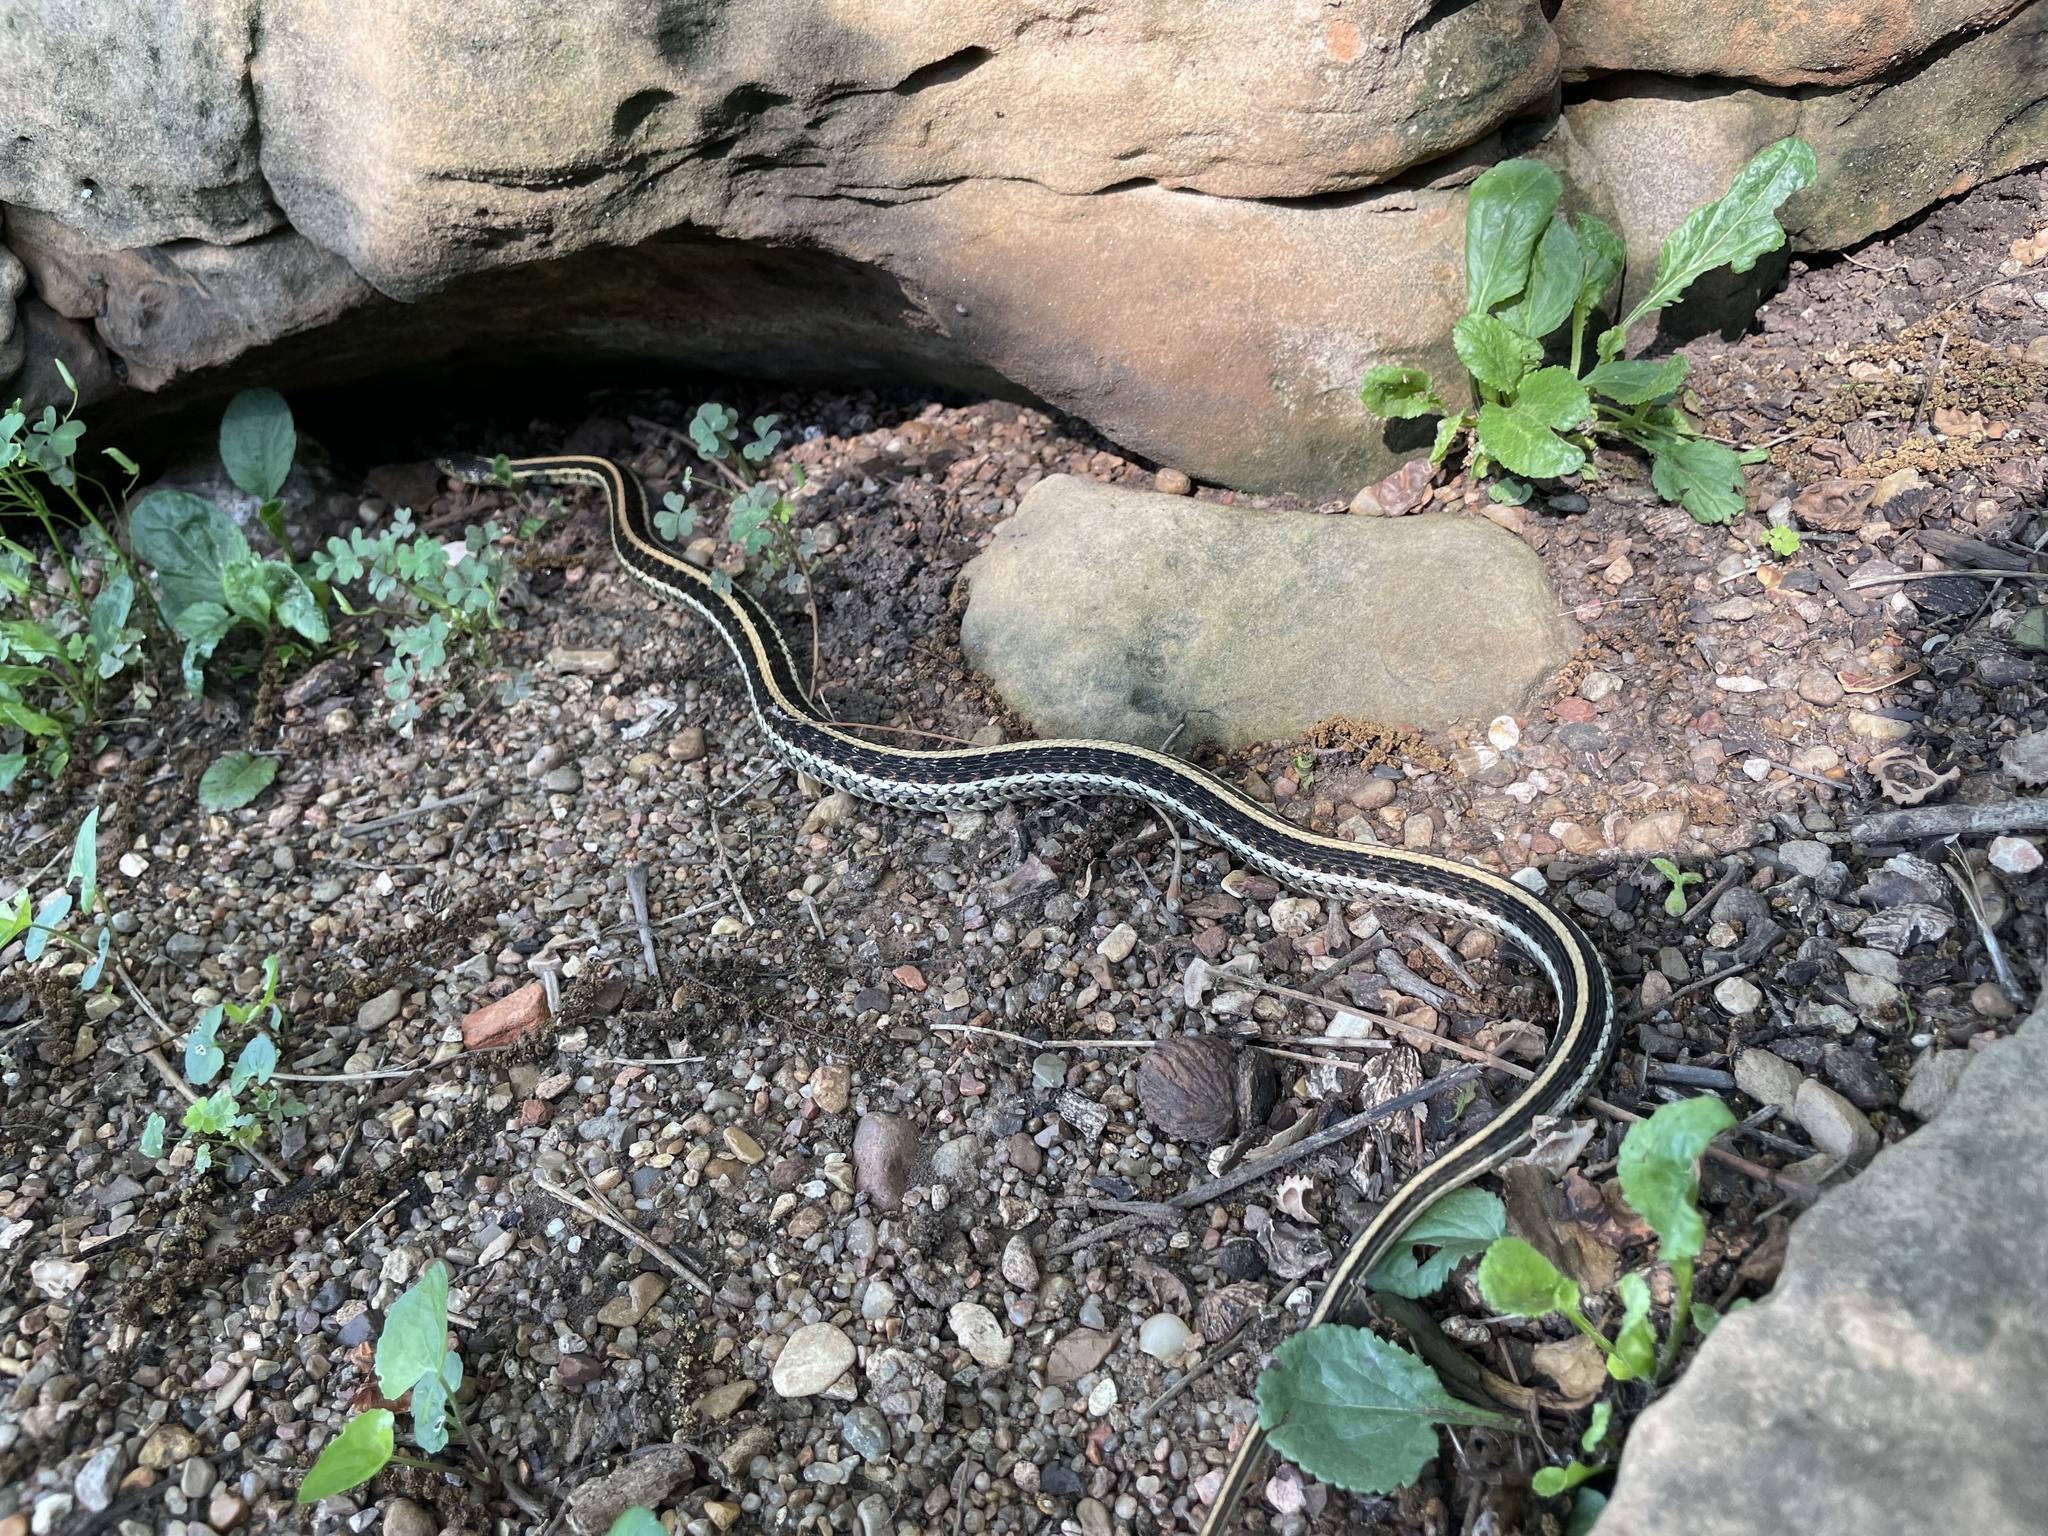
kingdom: Animalia
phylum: Chordata
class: Squamata
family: Colubridae
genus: Thamnophis
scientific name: Thamnophis sirtalis
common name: Common garter snake
